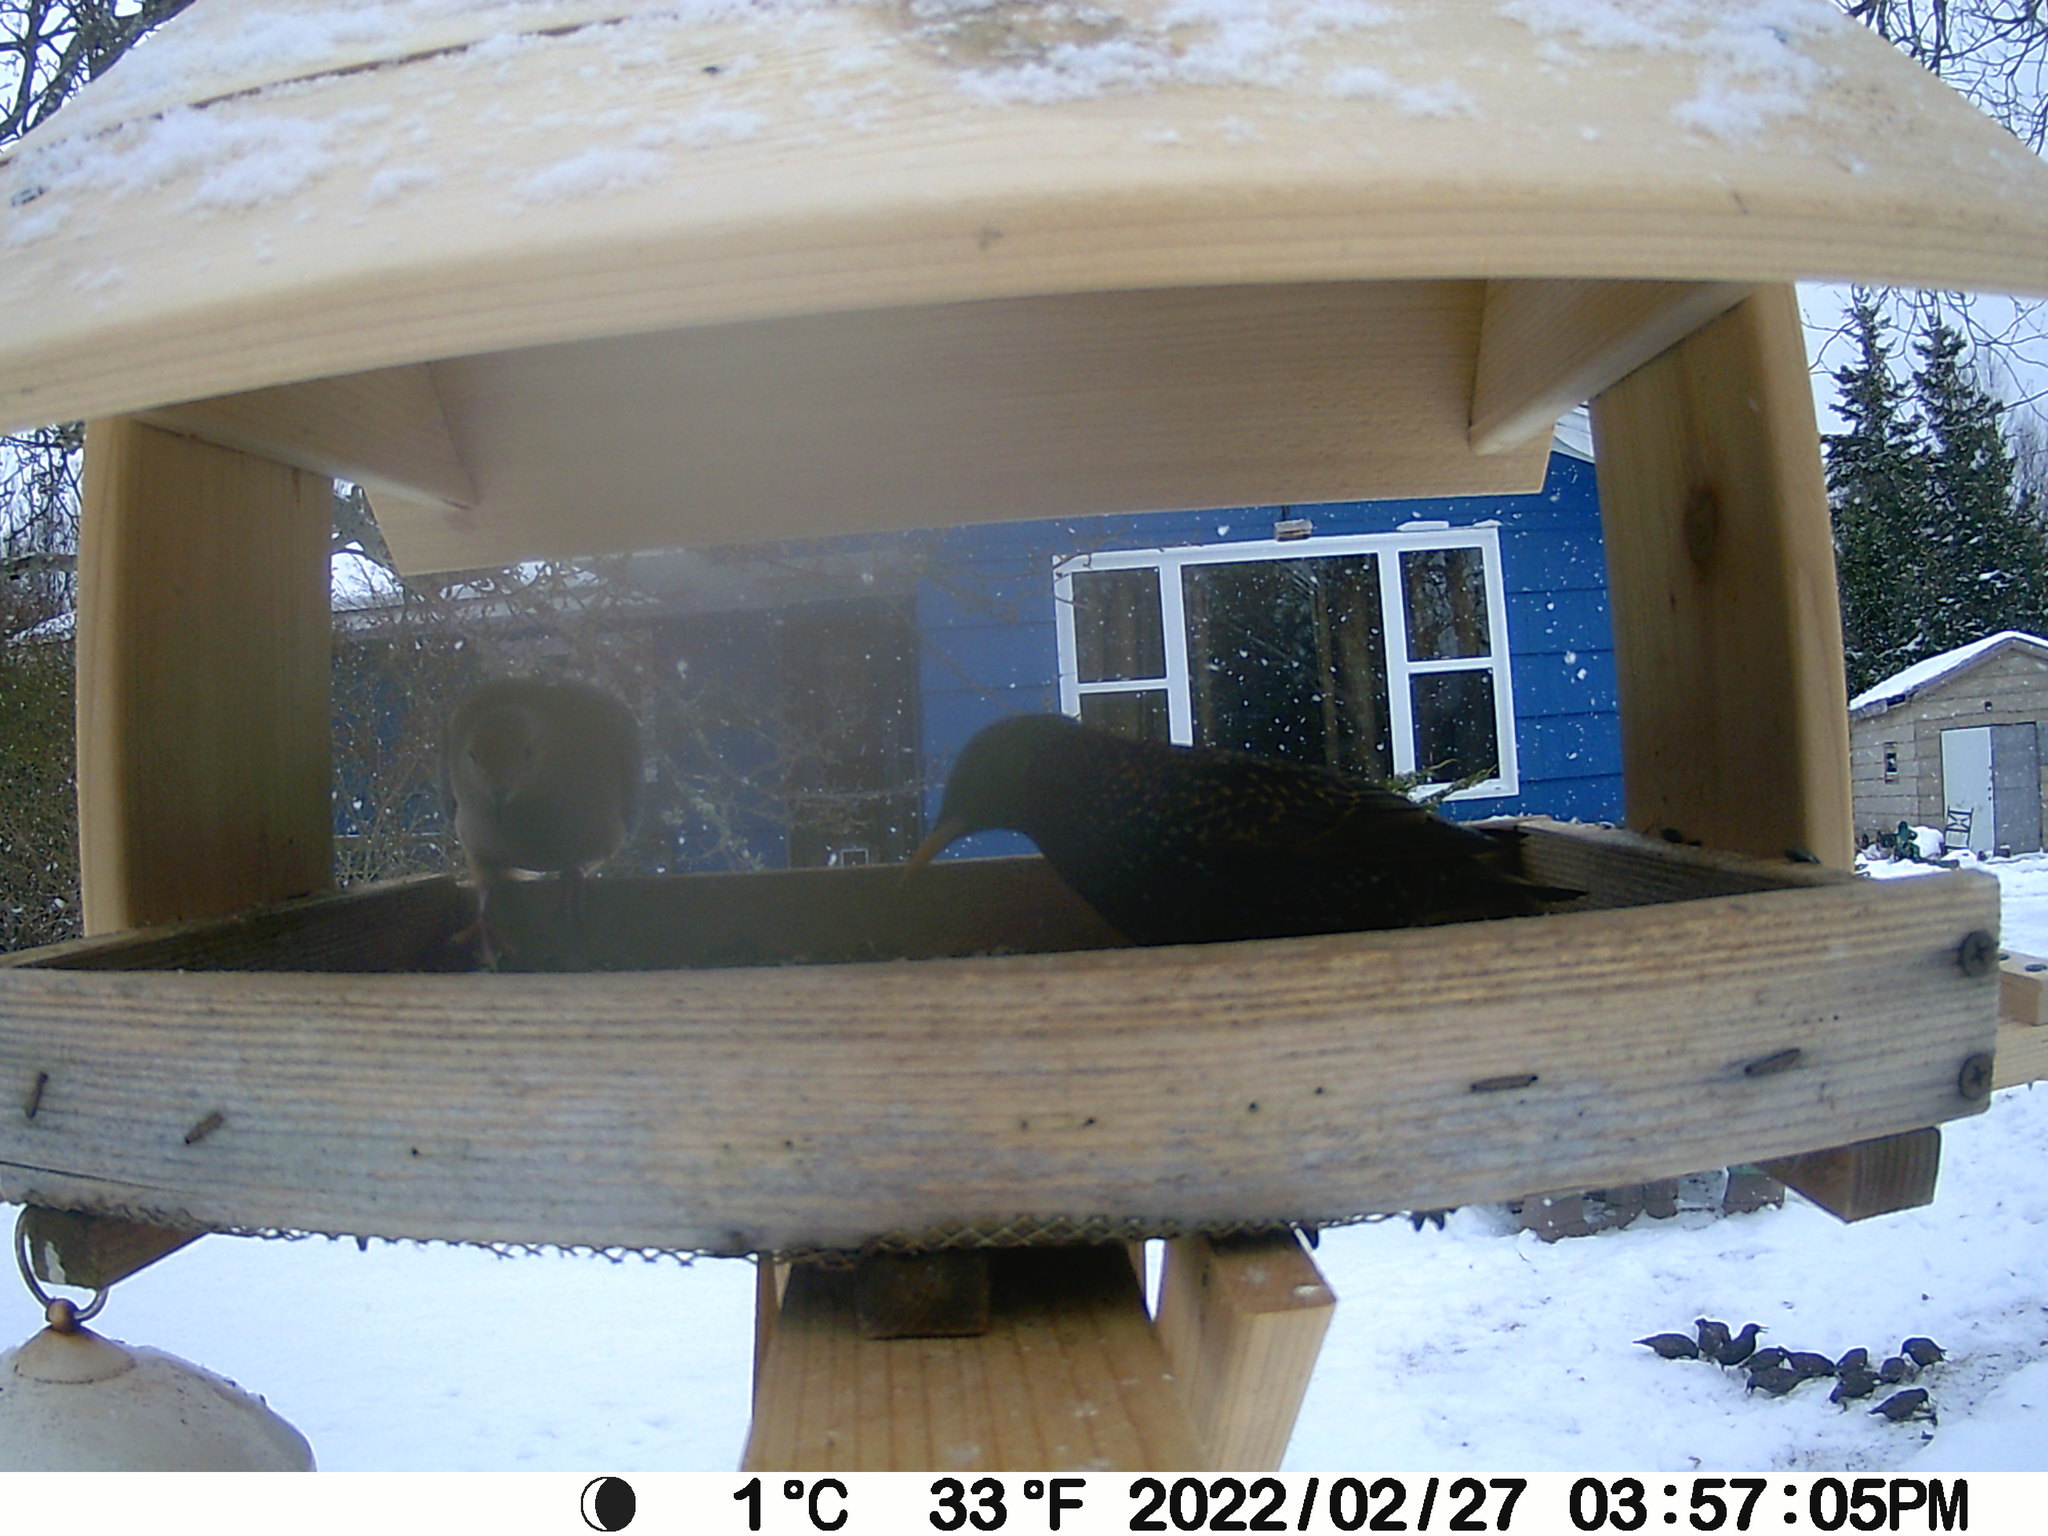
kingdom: Animalia
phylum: Chordata
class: Aves
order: Passeriformes
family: Sturnidae
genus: Sturnus
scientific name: Sturnus vulgaris
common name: Common starling
